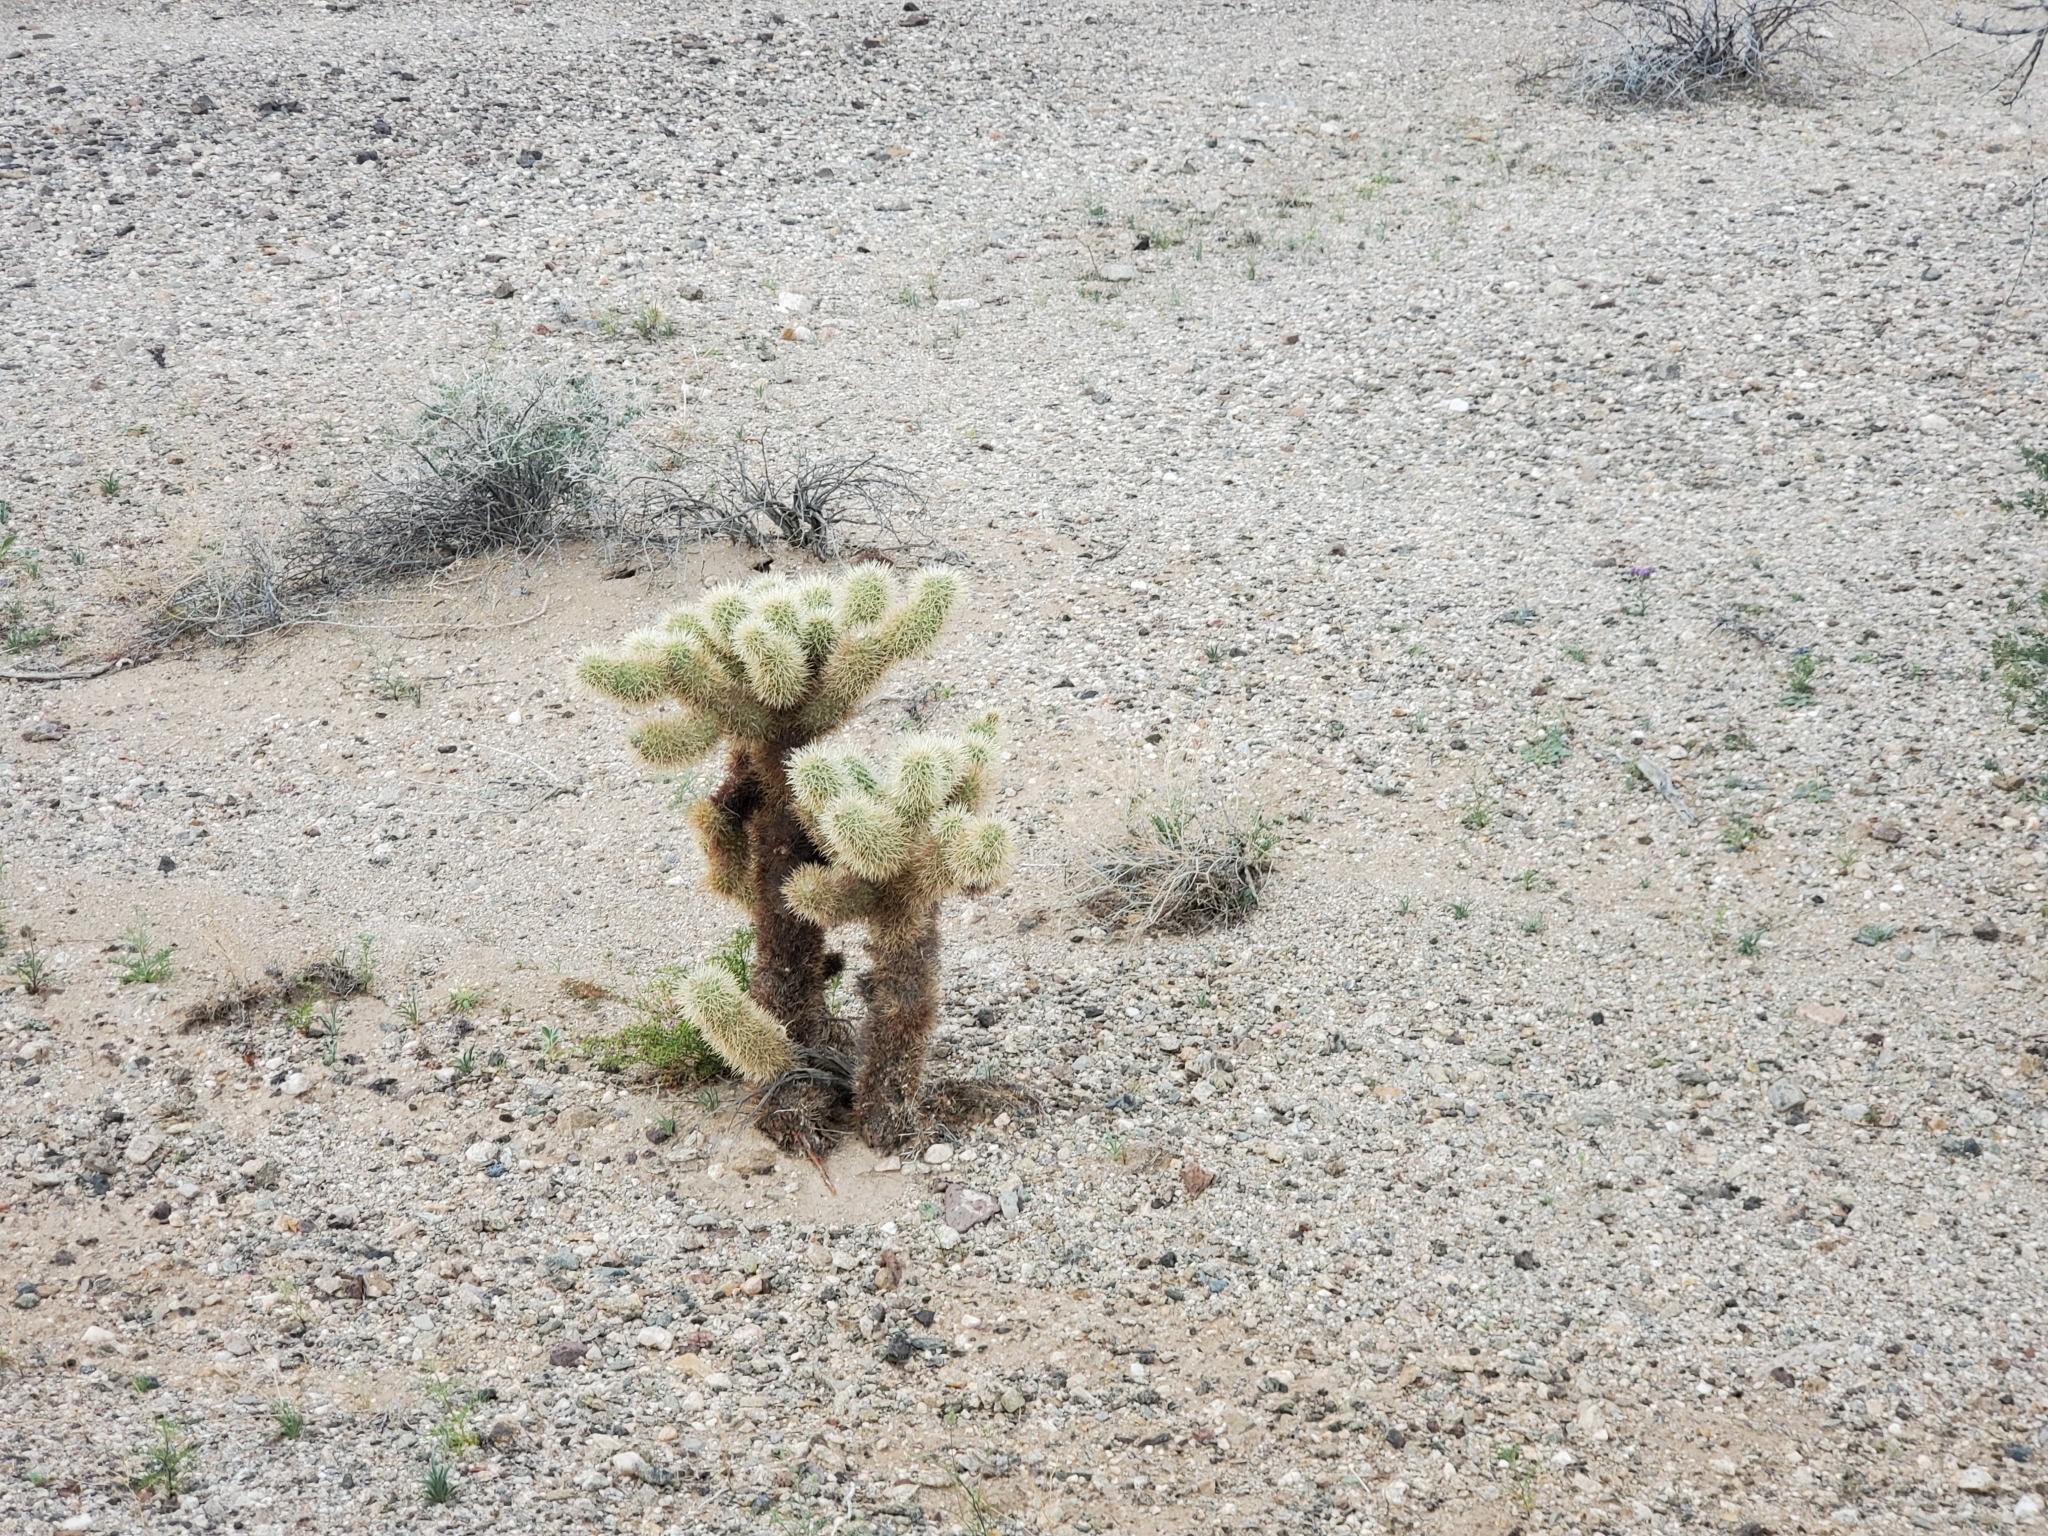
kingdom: Plantae
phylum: Tracheophyta
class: Magnoliopsida
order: Caryophyllales
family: Cactaceae
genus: Cylindropuntia
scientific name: Cylindropuntia fosbergii
